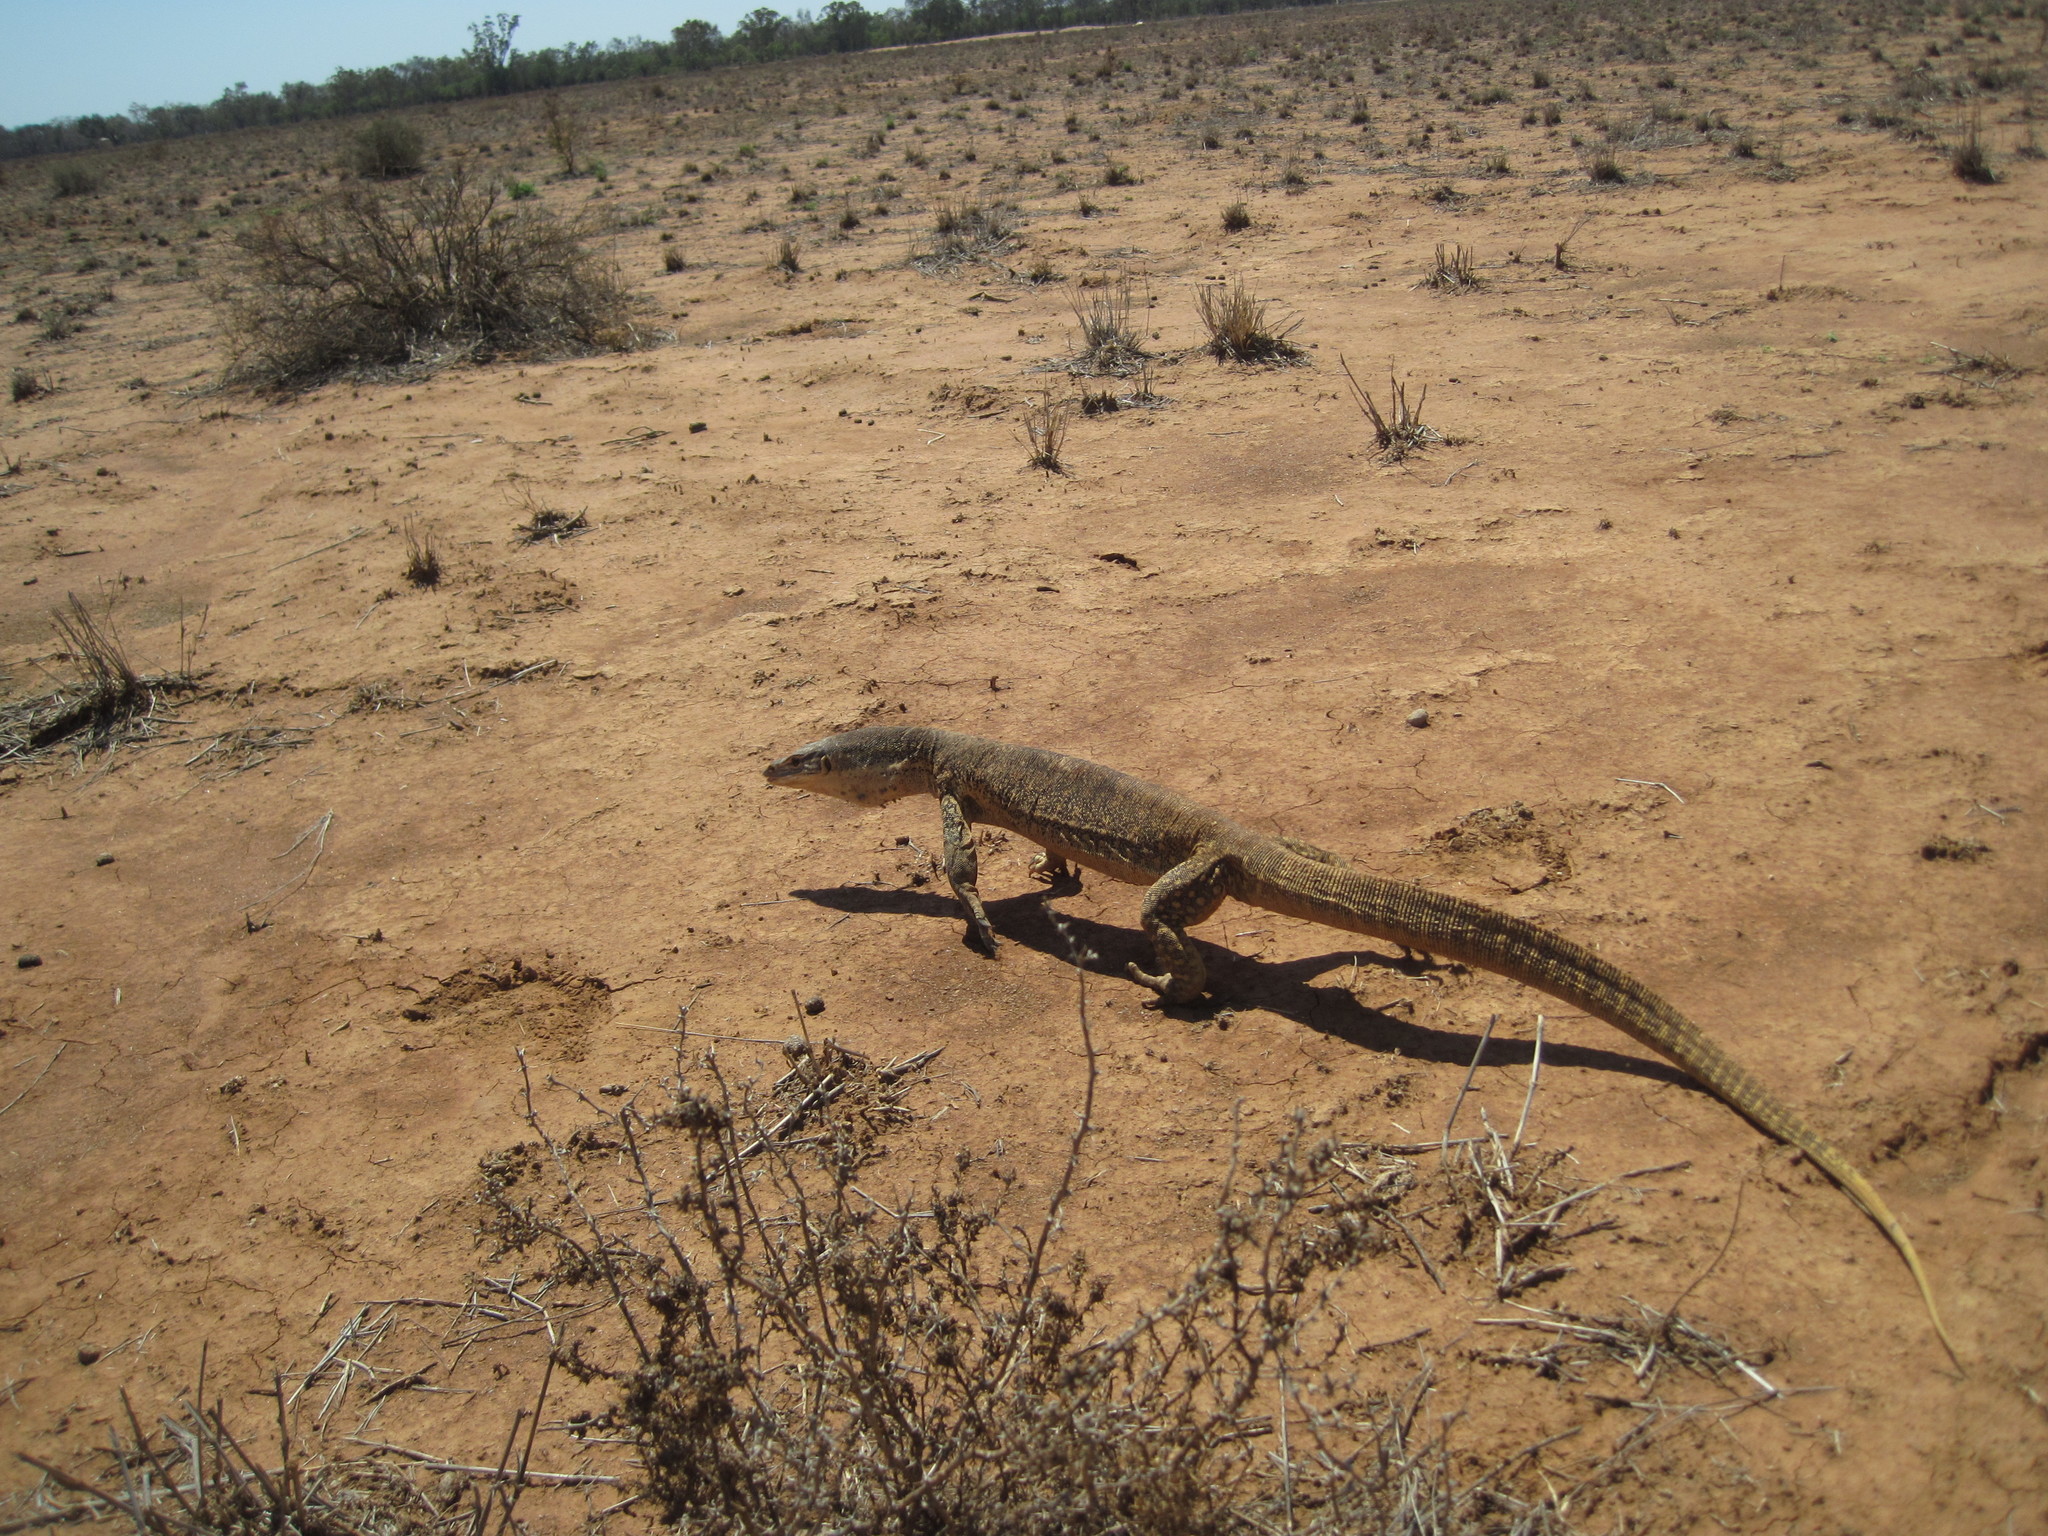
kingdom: Animalia
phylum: Chordata
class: Squamata
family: Varanidae
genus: Varanus
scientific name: Varanus gouldii
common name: Gould's goanna
